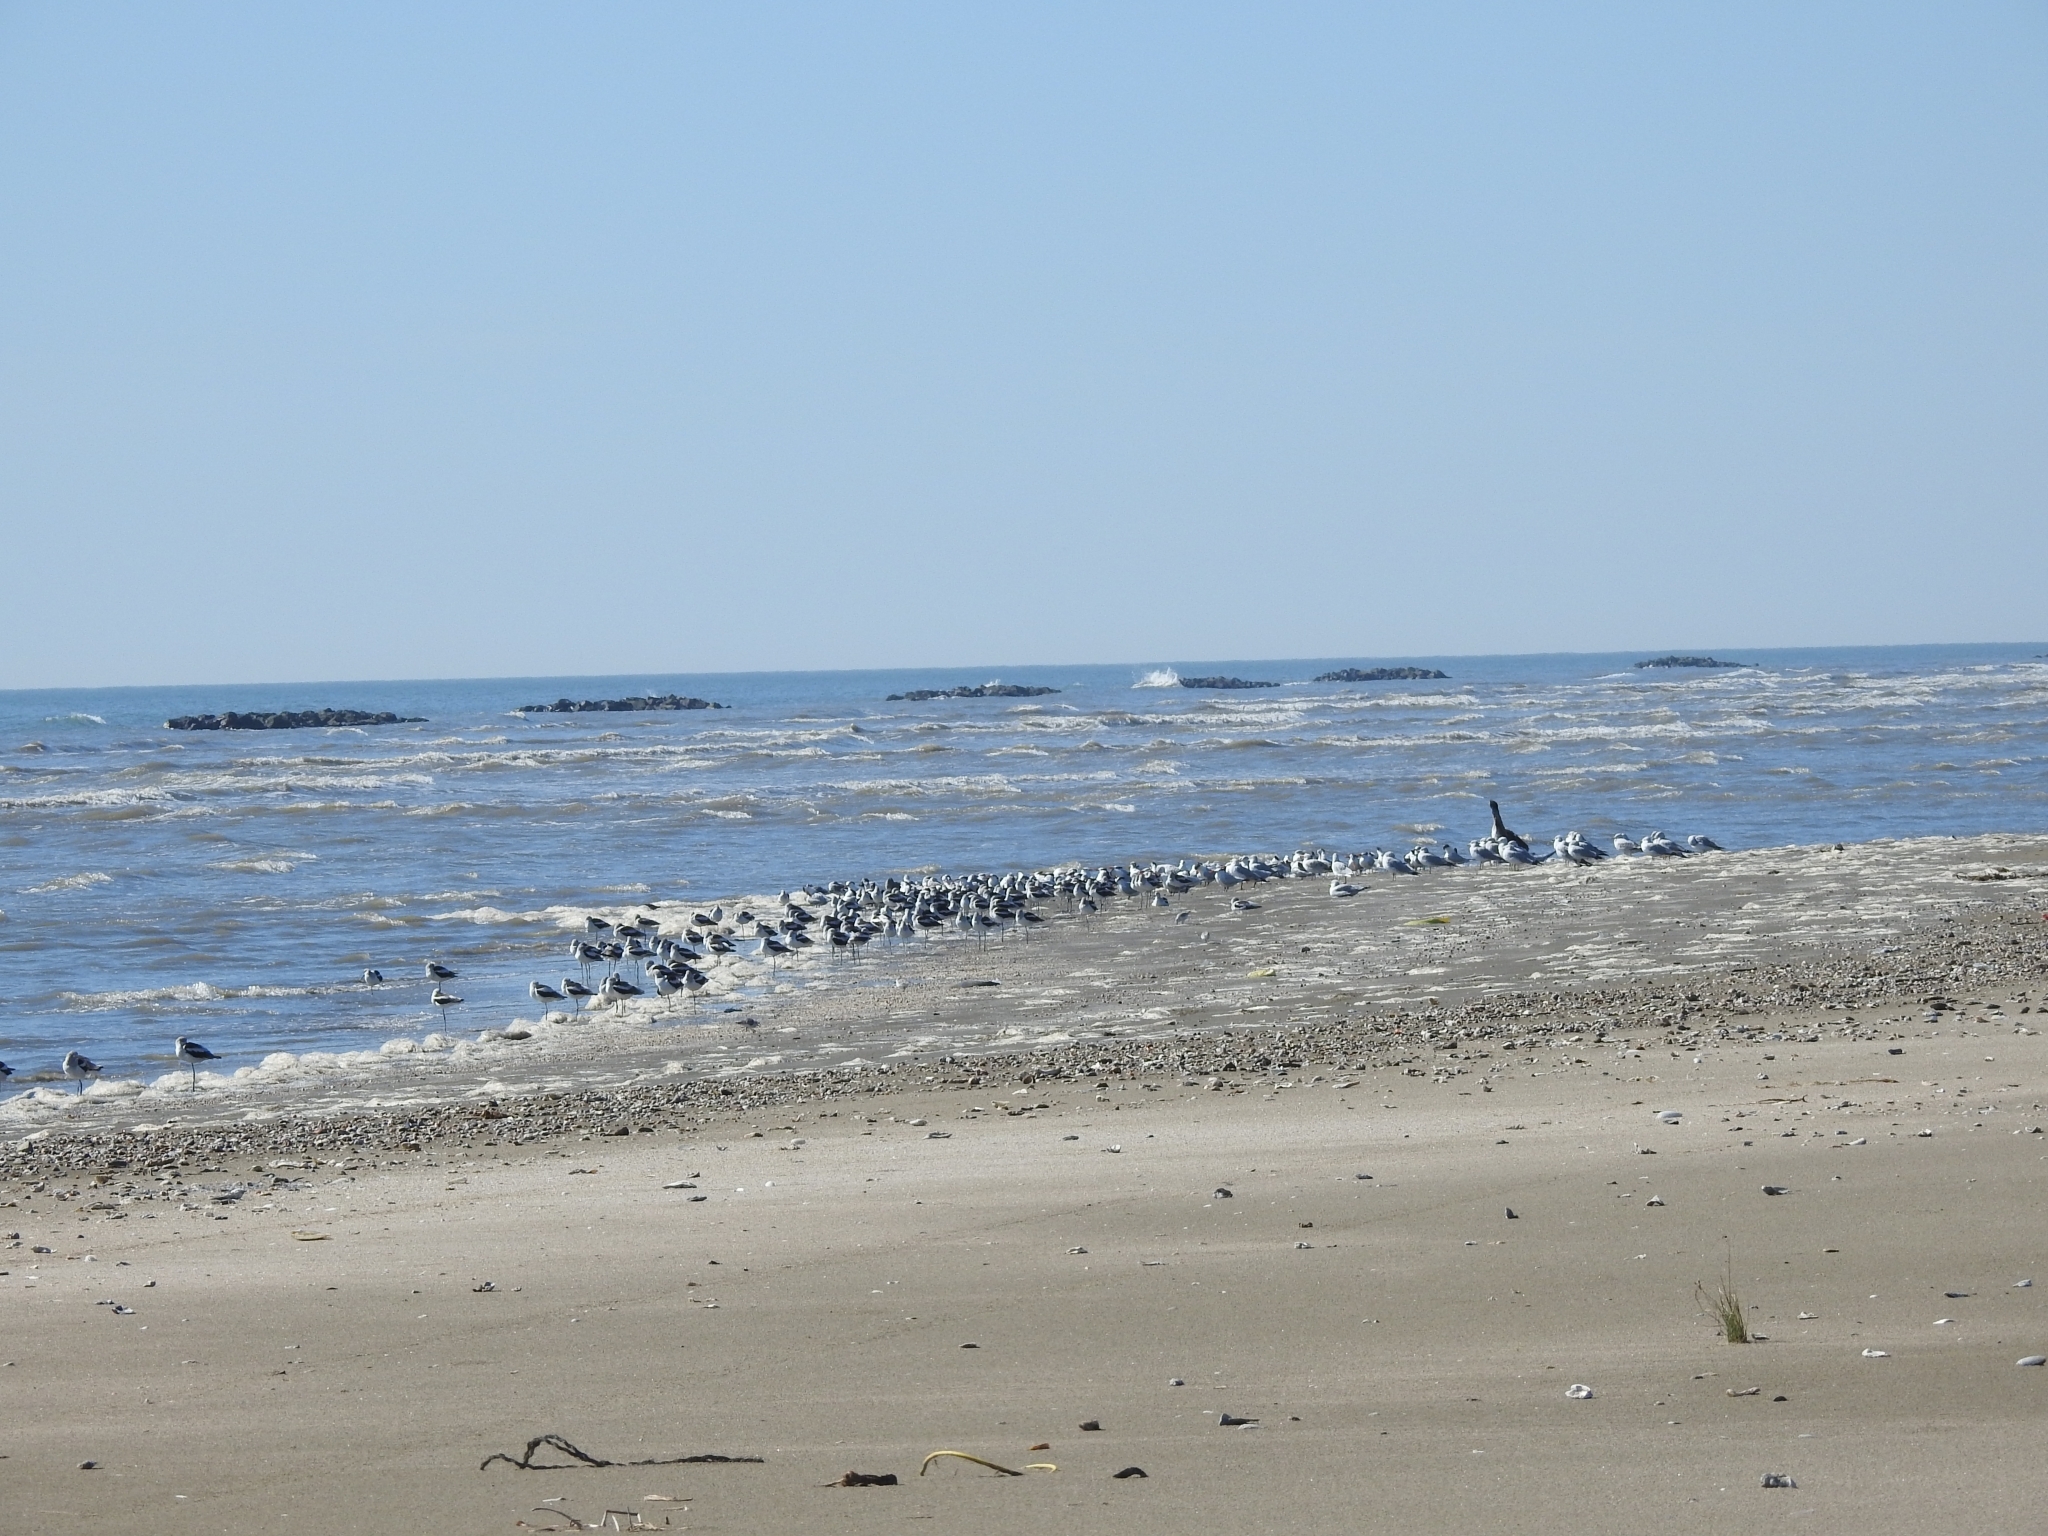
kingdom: Animalia
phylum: Chordata
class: Aves
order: Charadriiformes
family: Recurvirostridae
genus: Recurvirostra
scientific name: Recurvirostra americana
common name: American avocet
